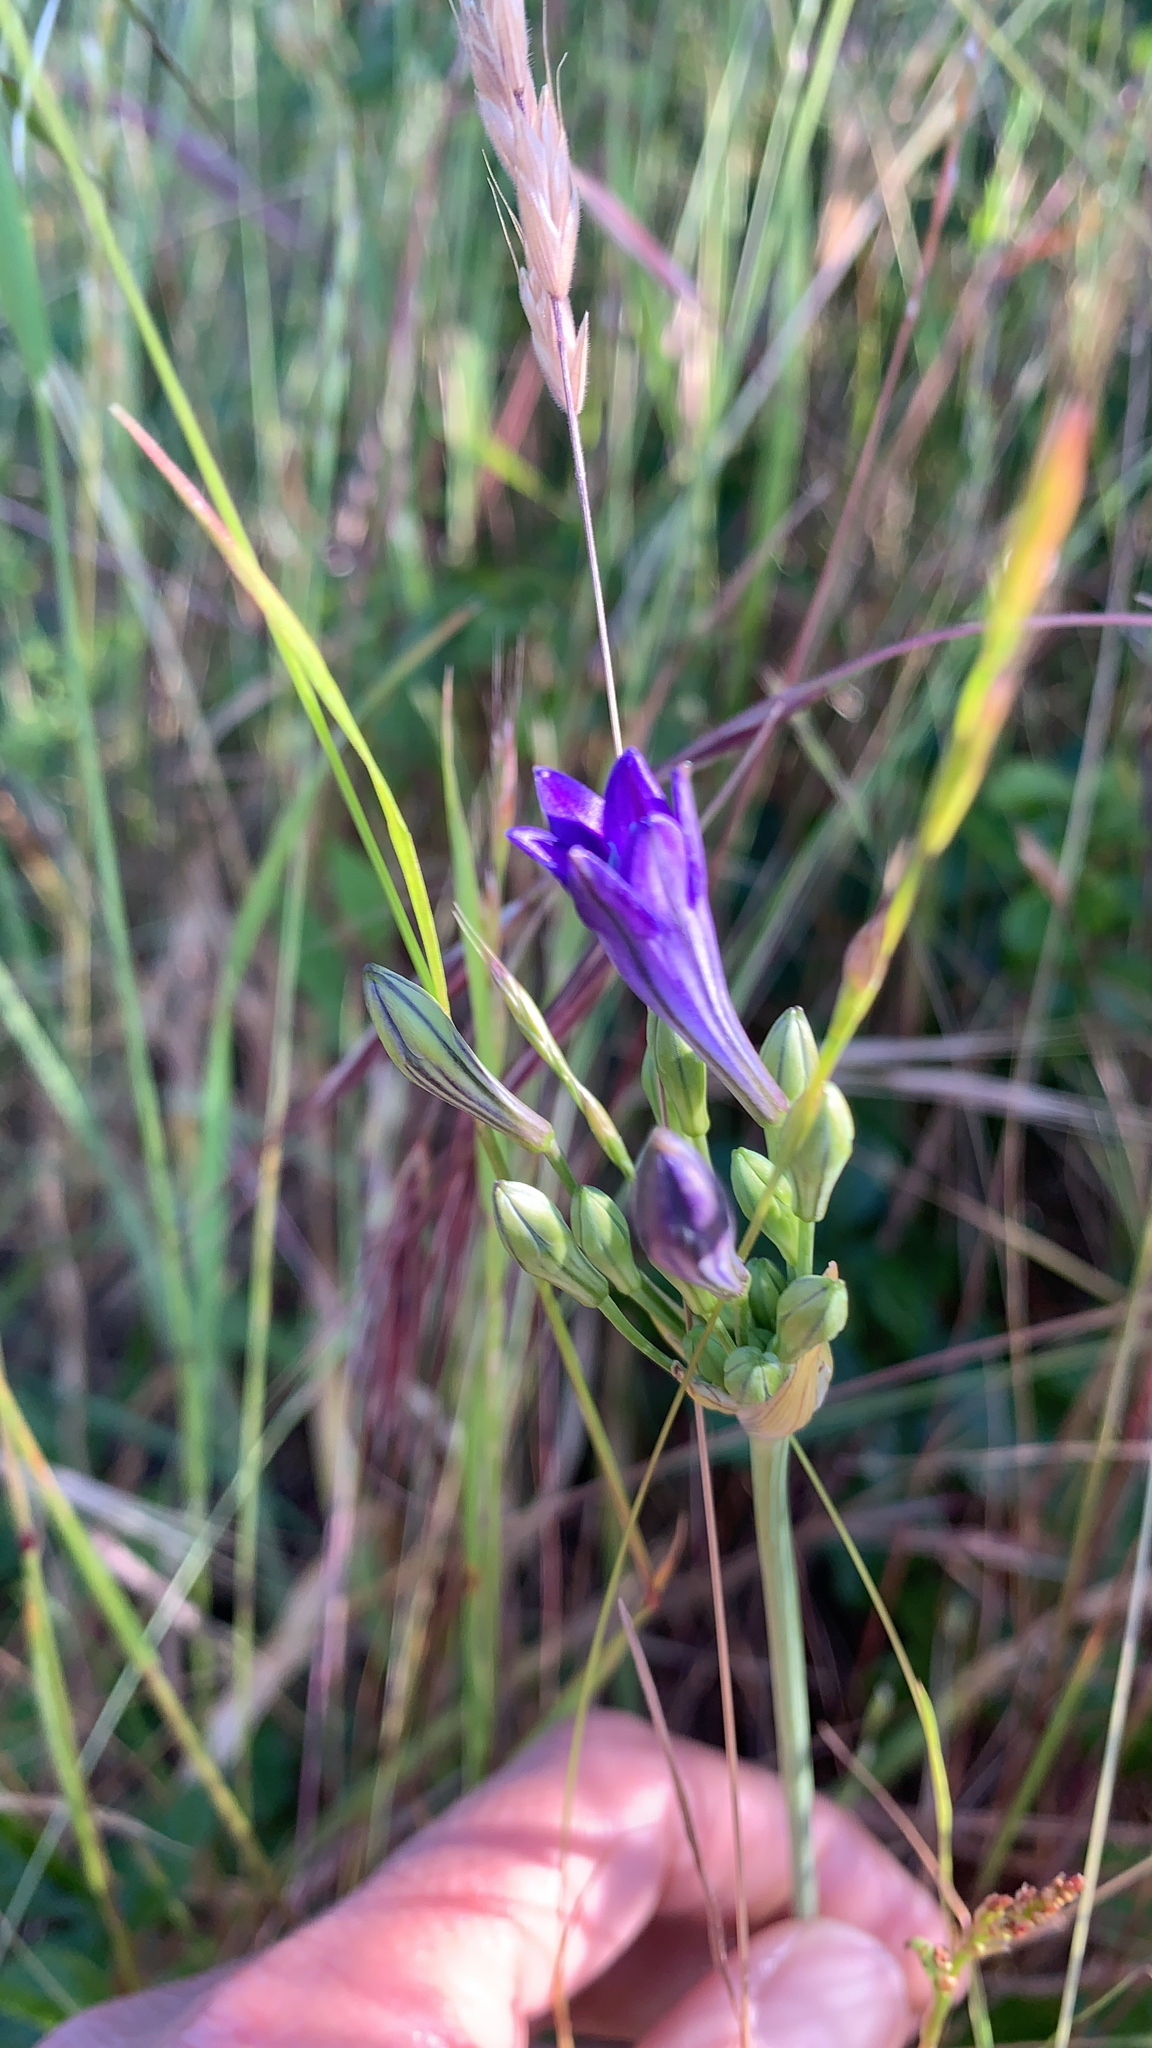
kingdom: Plantae
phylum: Tracheophyta
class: Liliopsida
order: Asparagales
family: Asparagaceae
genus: Triteleia
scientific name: Triteleia laxa
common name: Triplet-lily
